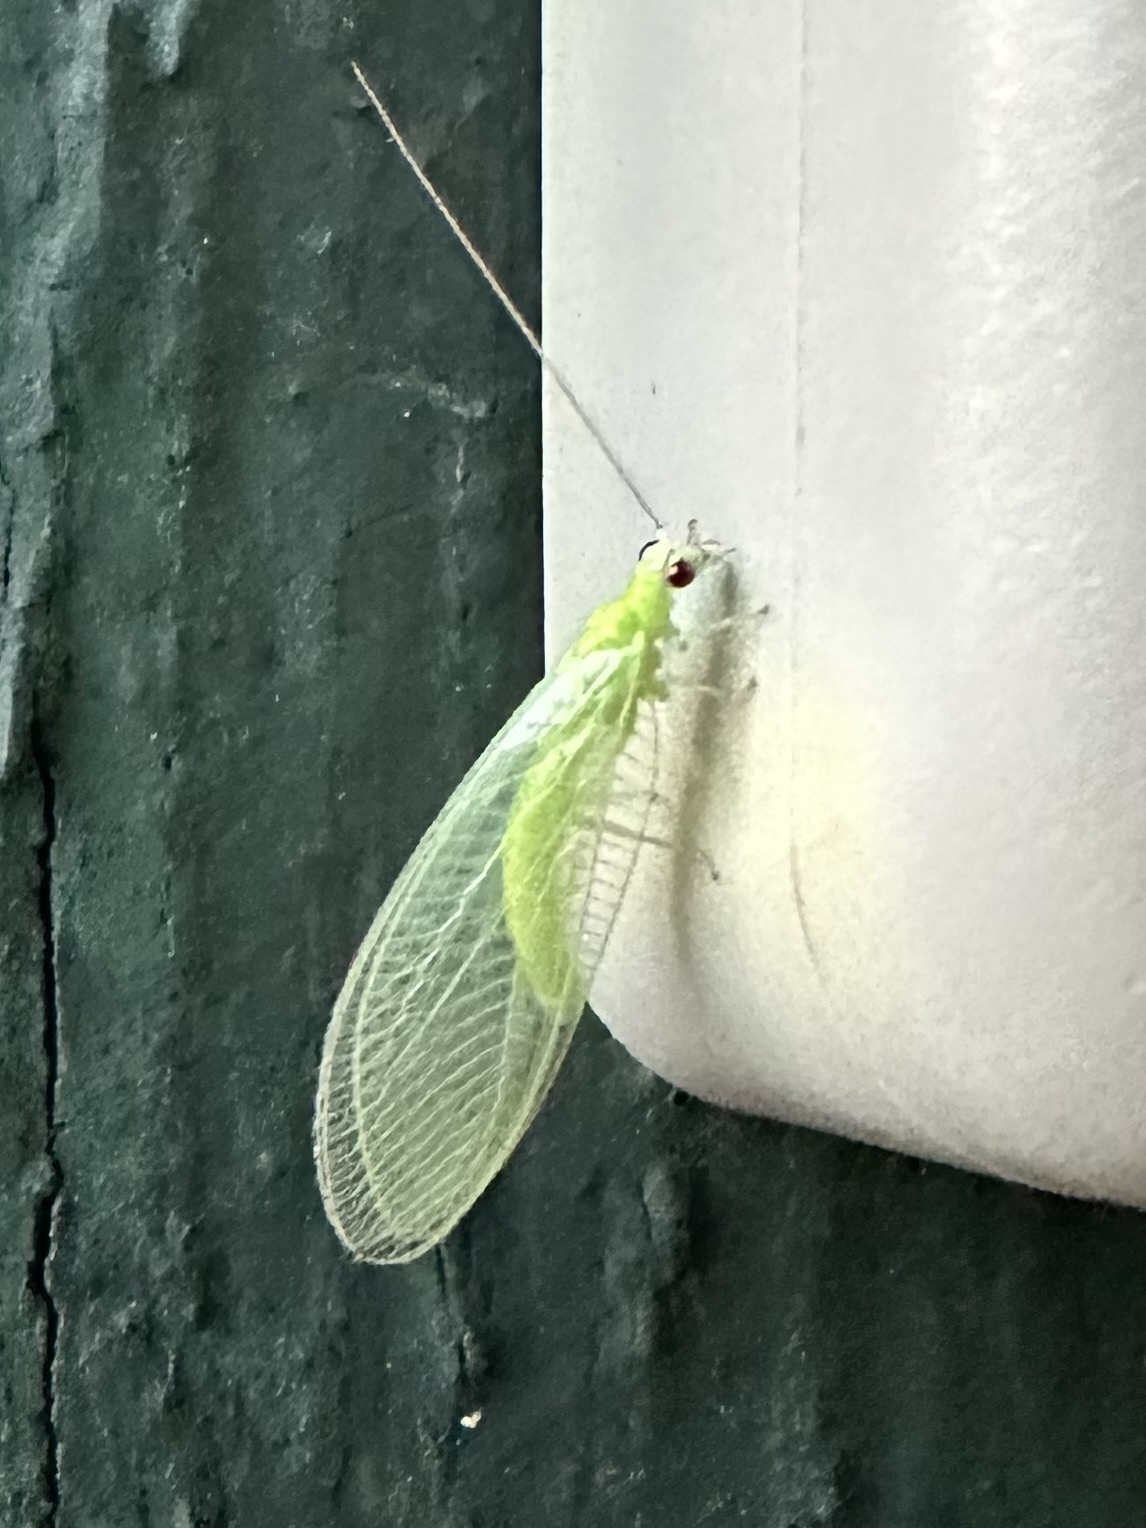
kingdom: Animalia
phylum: Arthropoda
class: Insecta
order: Neuroptera
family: Chrysopidae
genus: Chrysopa
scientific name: Chrysopa nigricornis
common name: Black-horned green lacewing
